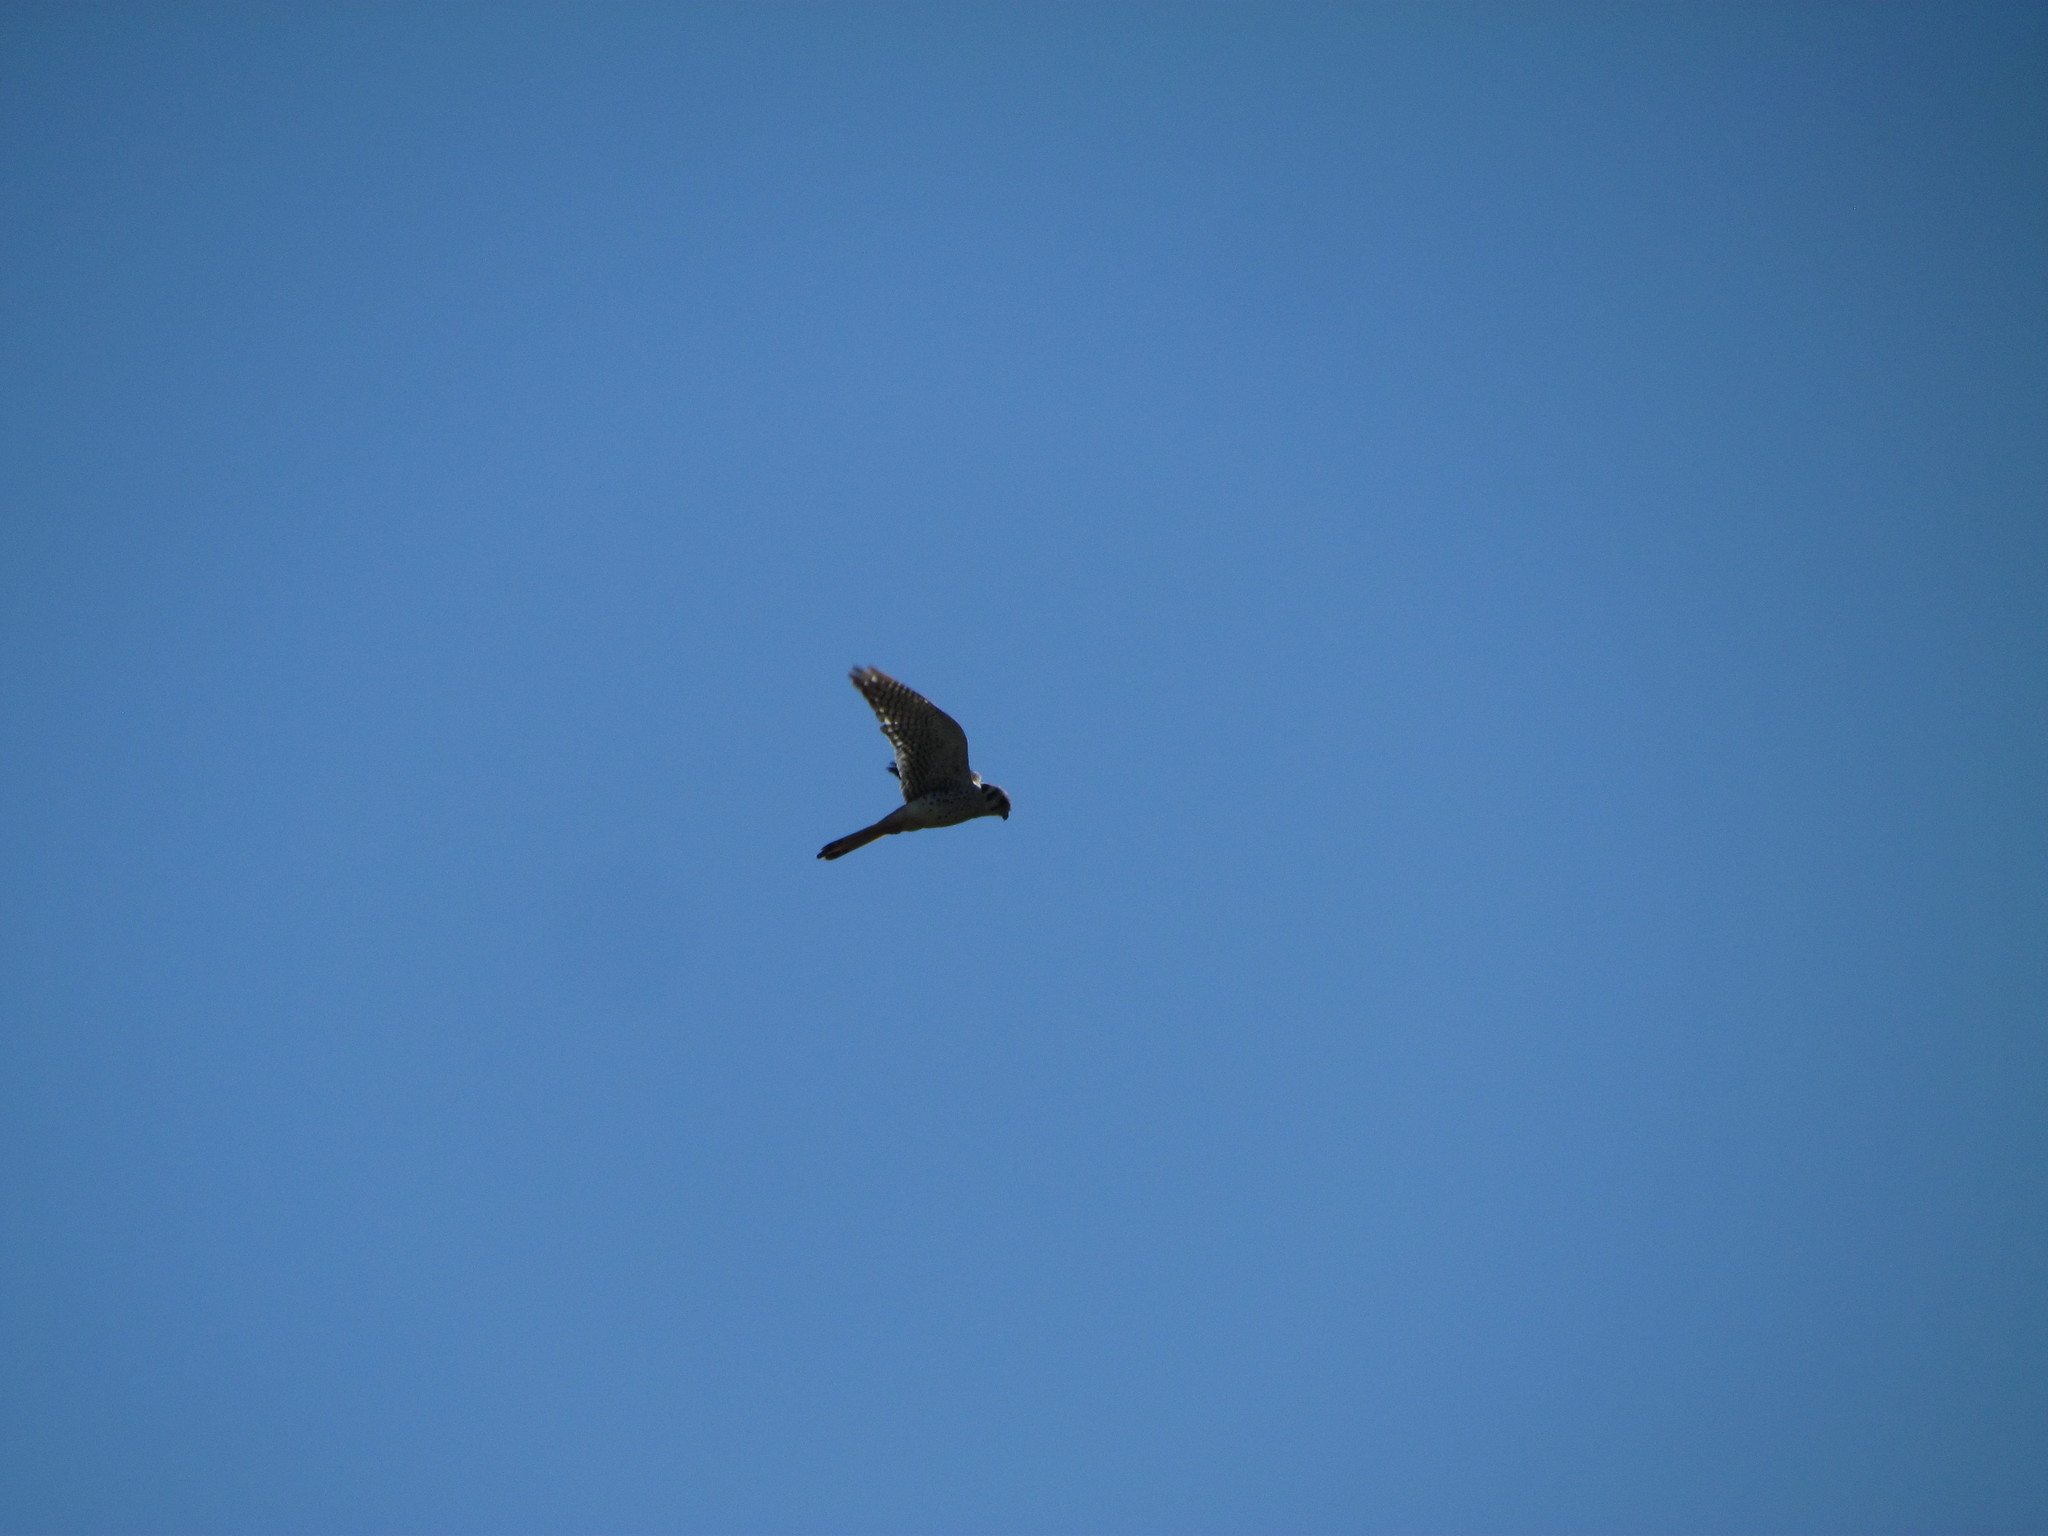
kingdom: Animalia
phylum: Chordata
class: Aves
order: Falconiformes
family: Falconidae
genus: Falco
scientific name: Falco sparverius
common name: American kestrel
